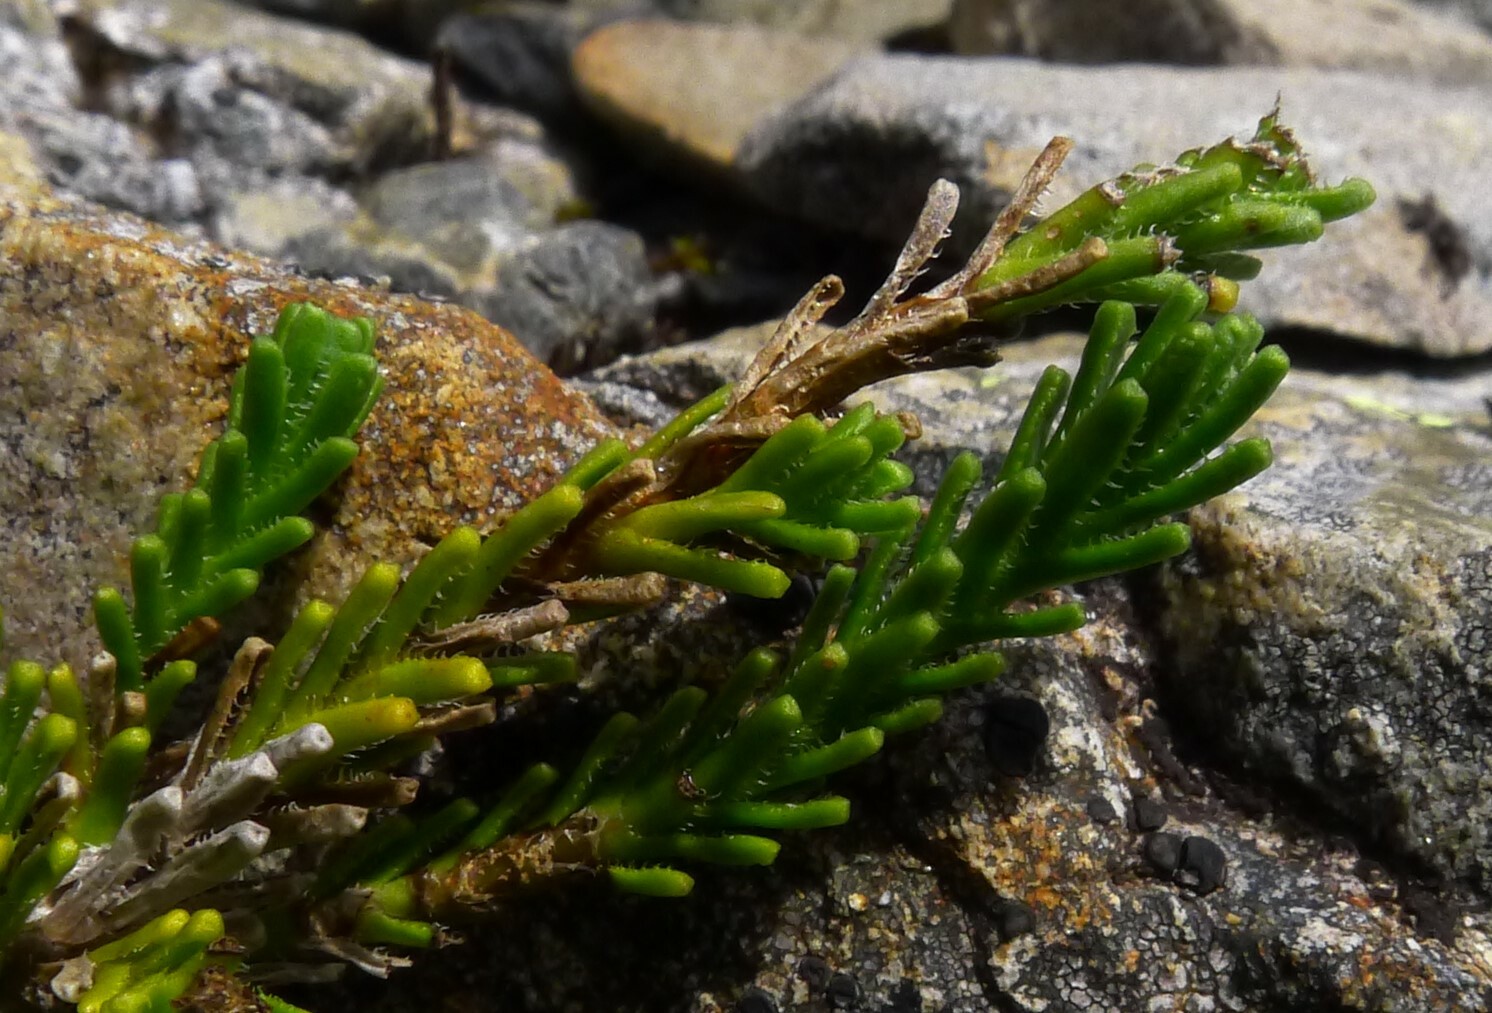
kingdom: Plantae
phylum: Tracheophyta
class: Magnoliopsida
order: Lamiales
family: Plantaginaceae
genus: Veronica
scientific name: Veronica hookeri
